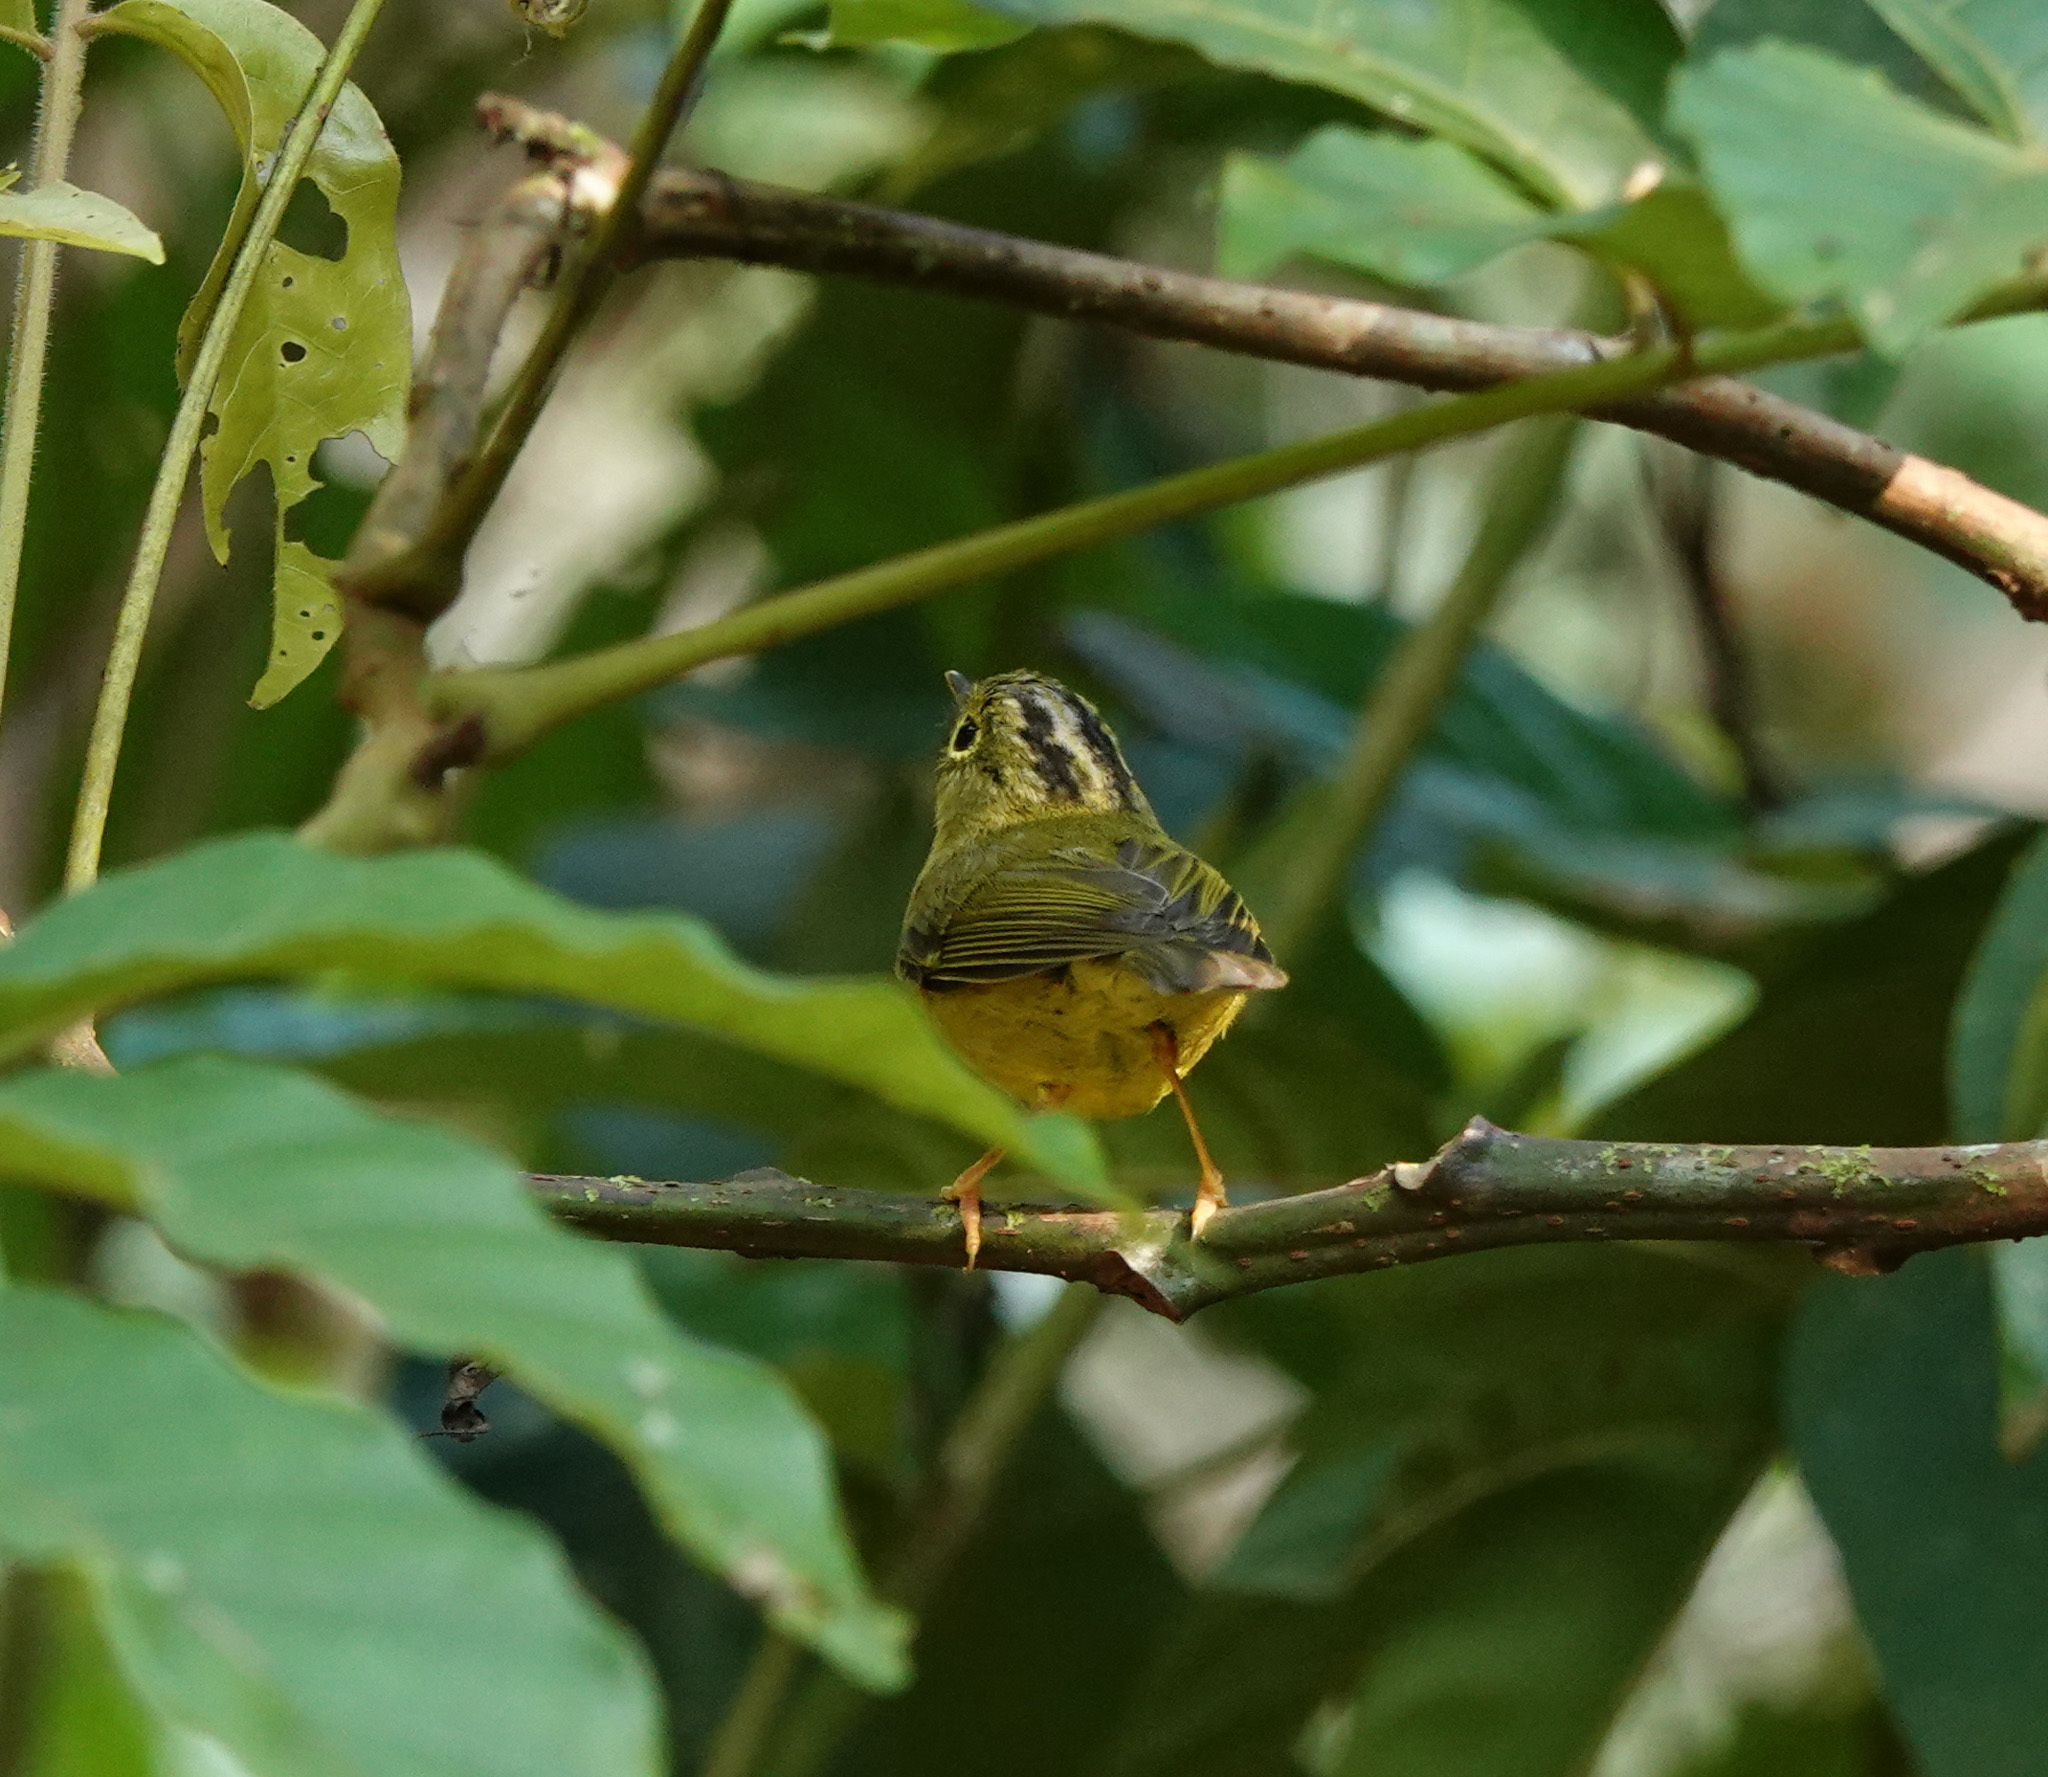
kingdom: Animalia
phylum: Chordata
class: Aves
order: Passeriformes
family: Phylloscopidae
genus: Seicercus
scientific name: Seicercus whistleri
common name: Whistler's warbler
